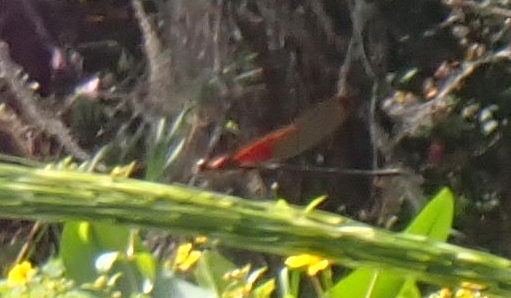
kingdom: Animalia
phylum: Arthropoda
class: Insecta
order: Odonata
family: Calopterygidae
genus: Hetaerina
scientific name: Hetaerina titia
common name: Smoky rubyspot
